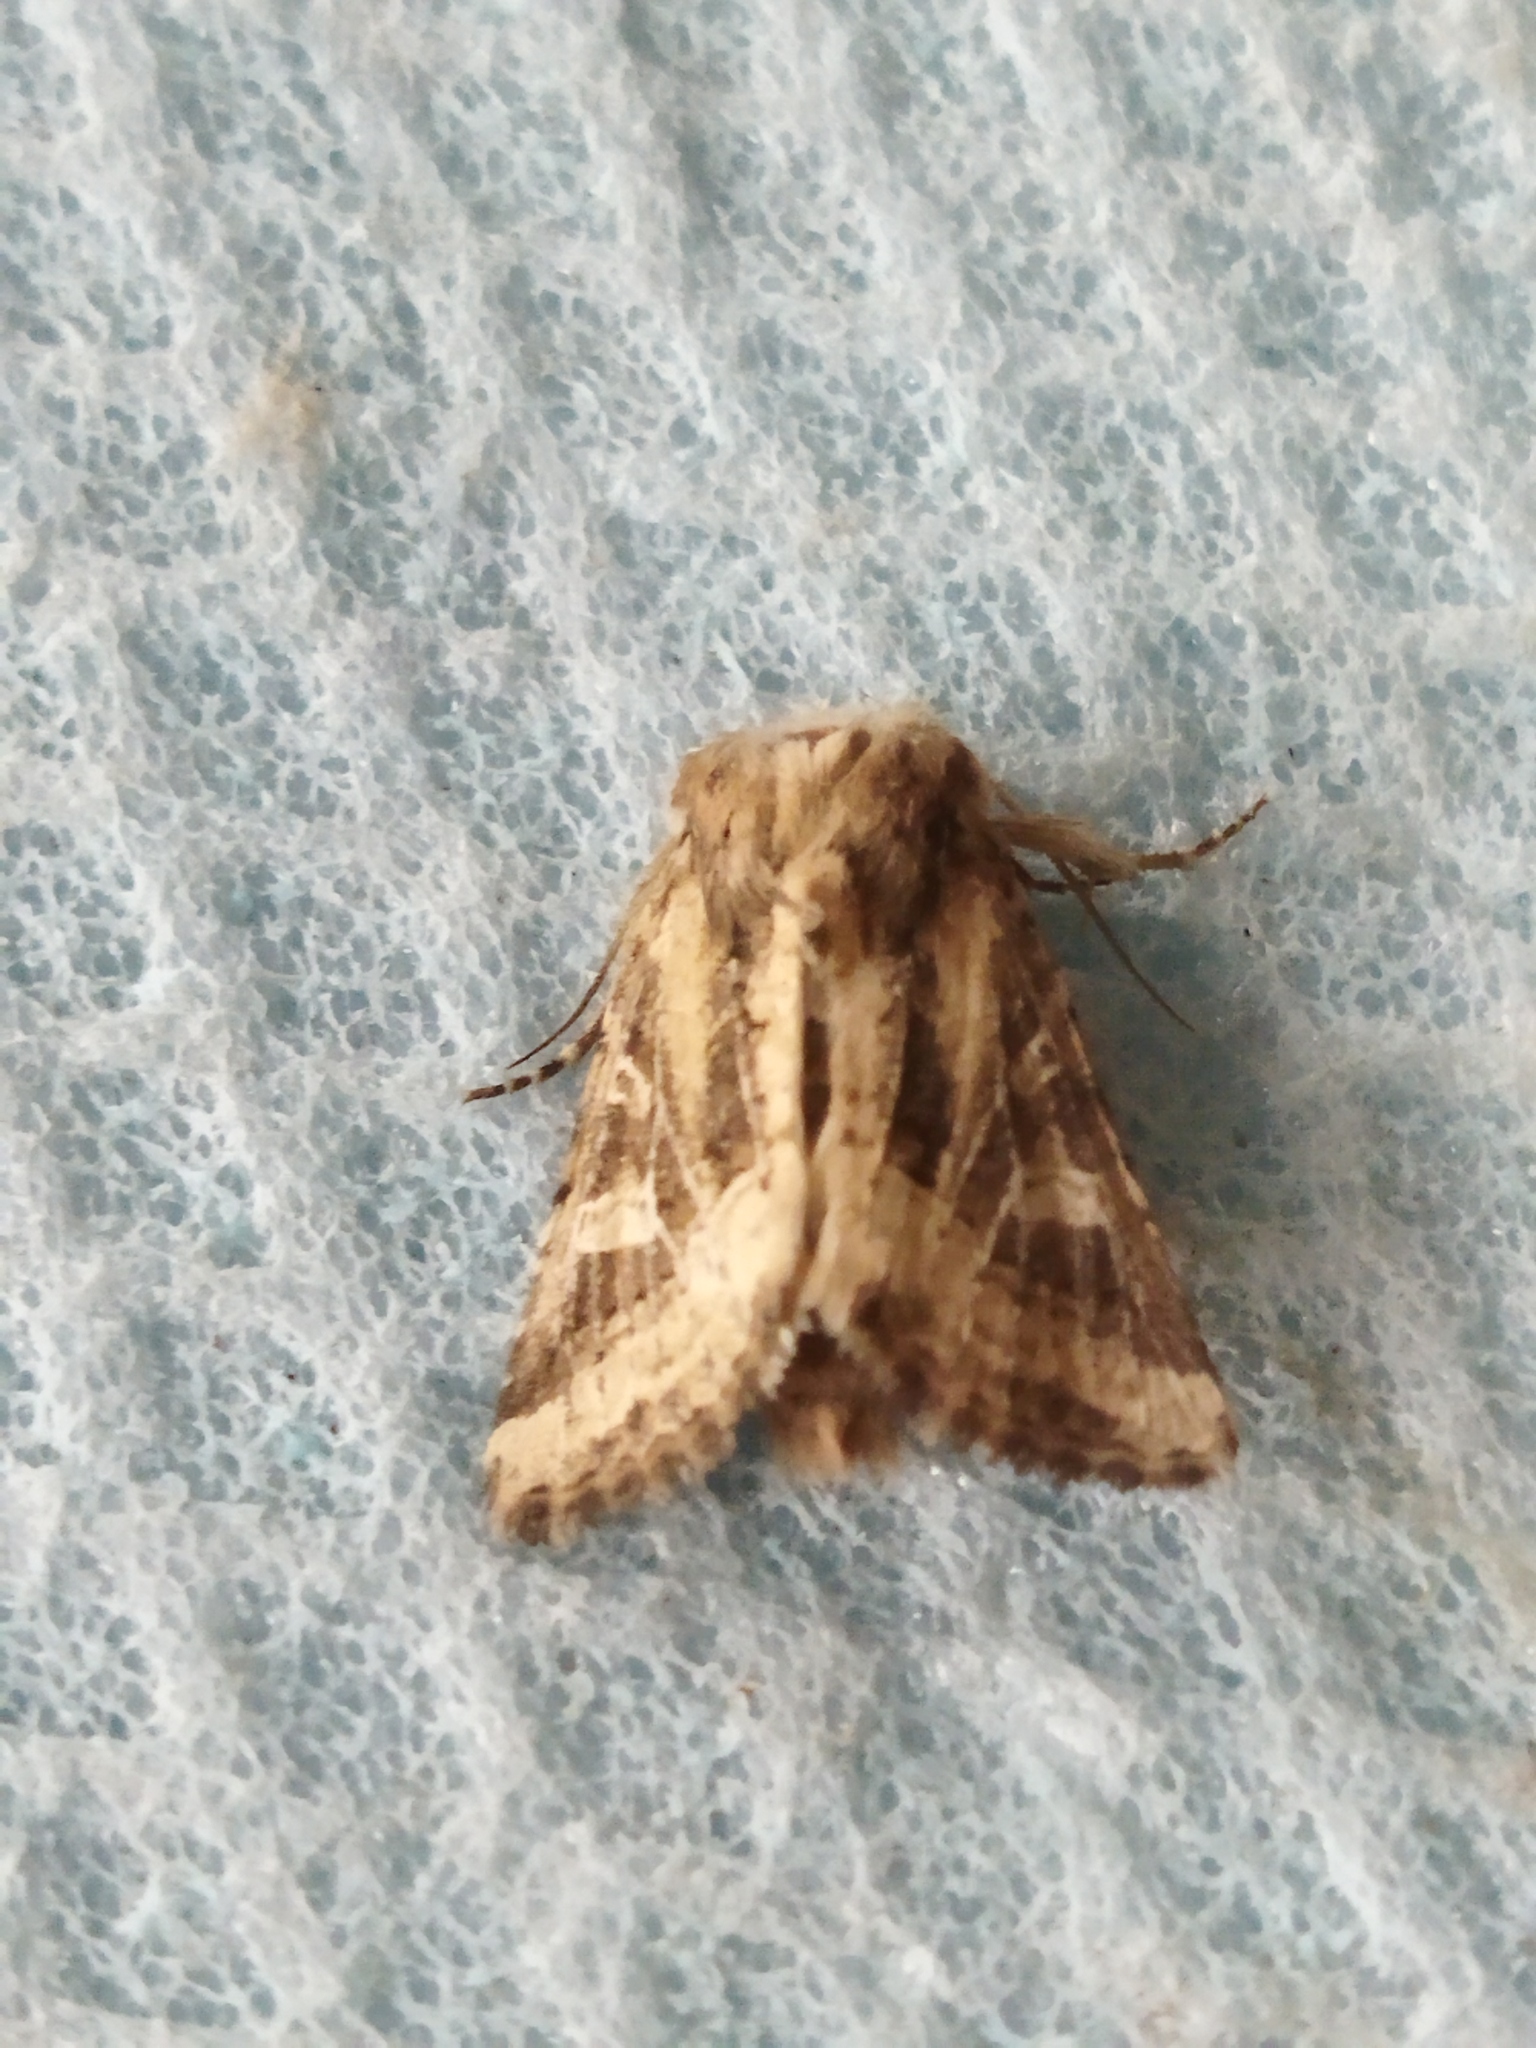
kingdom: Animalia
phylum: Arthropoda
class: Insecta
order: Lepidoptera
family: Noctuidae
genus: Luperina
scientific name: Luperina dumerilii
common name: Dumeril's rustic
